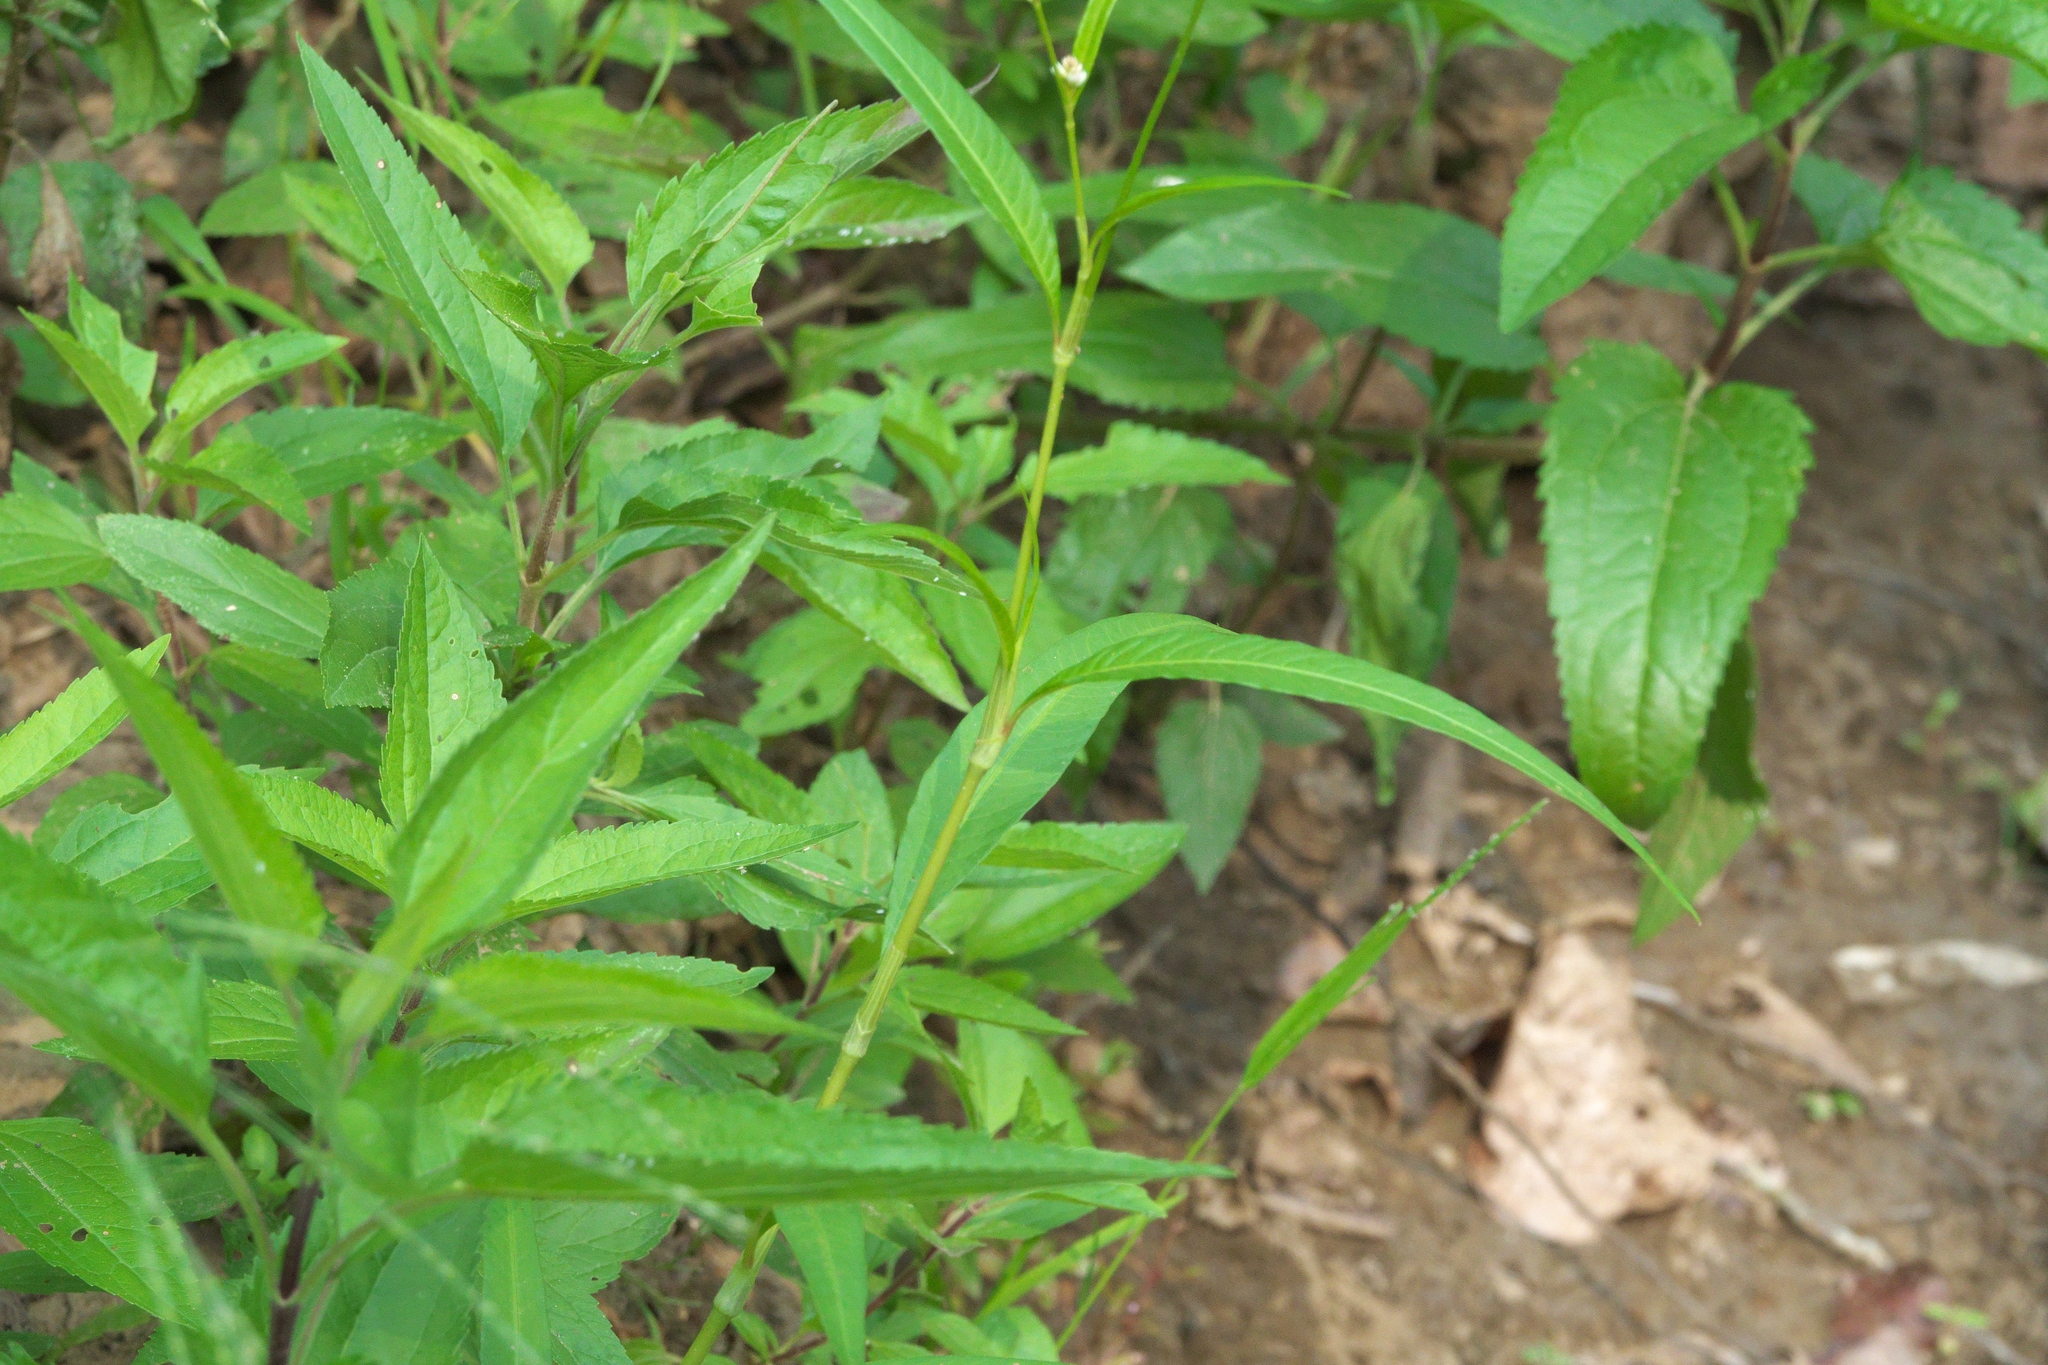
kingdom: Plantae
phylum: Tracheophyta
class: Magnoliopsida
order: Caryophyllales
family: Polygonaceae
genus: Persicaria
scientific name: Persicaria lapathifolia
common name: Curlytop knotweed
